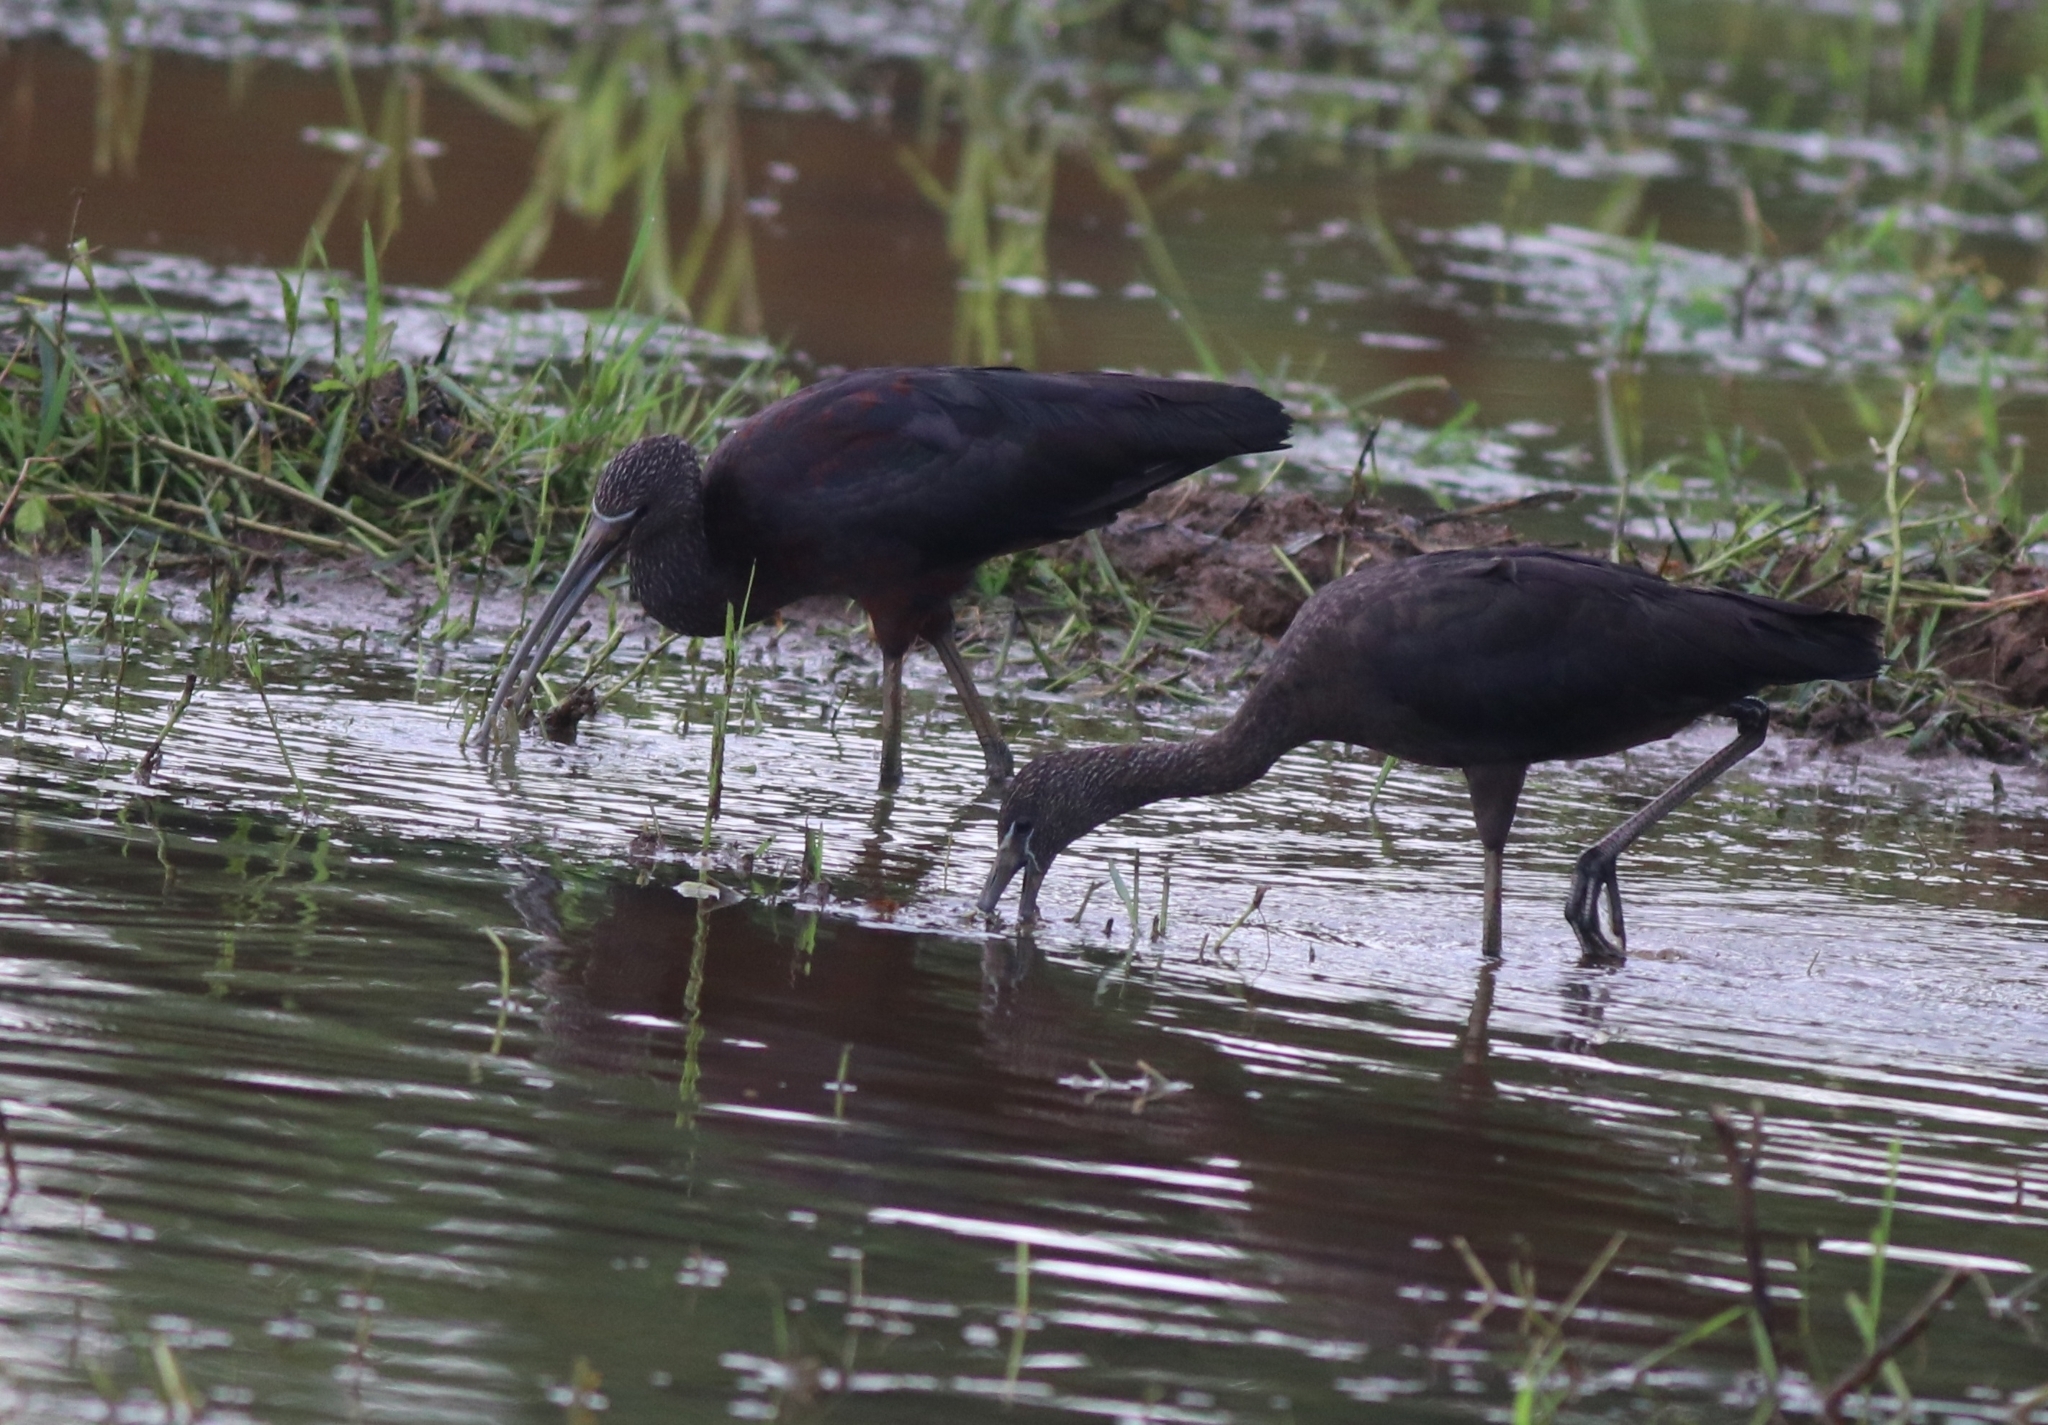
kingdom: Animalia
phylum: Chordata
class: Aves
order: Pelecaniformes
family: Threskiornithidae
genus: Plegadis
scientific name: Plegadis falcinellus
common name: Glossy ibis
